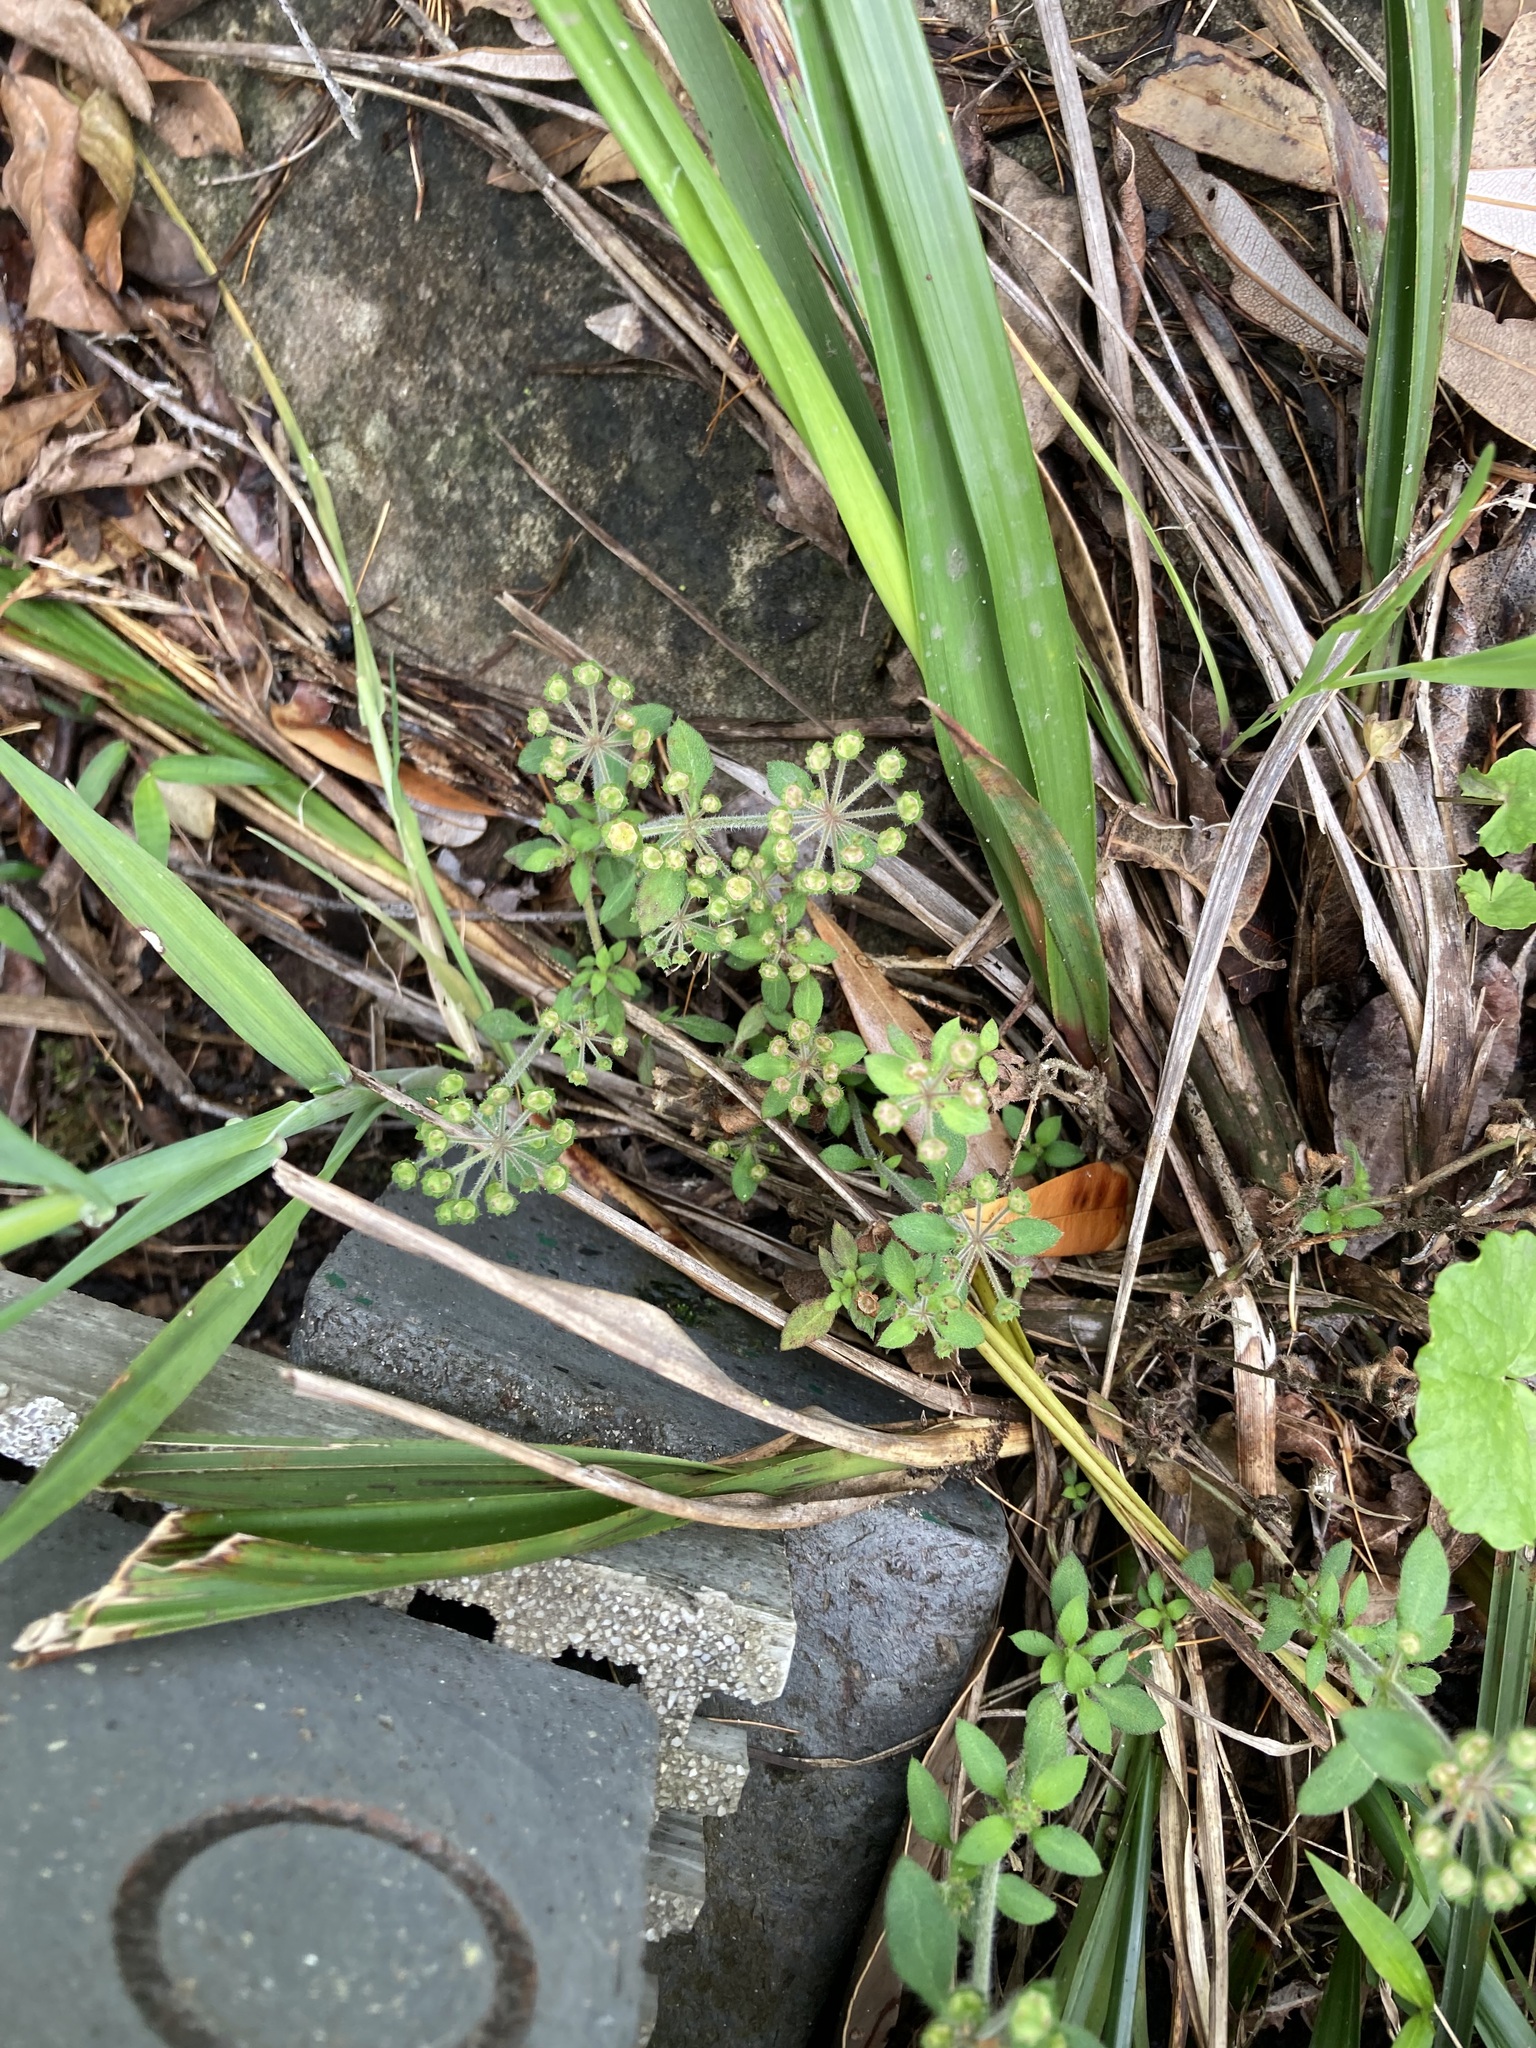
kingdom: Plantae
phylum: Tracheophyta
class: Magnoliopsida
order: Gentianales
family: Rubiaceae
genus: Pomax
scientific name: Pomax umbellata
